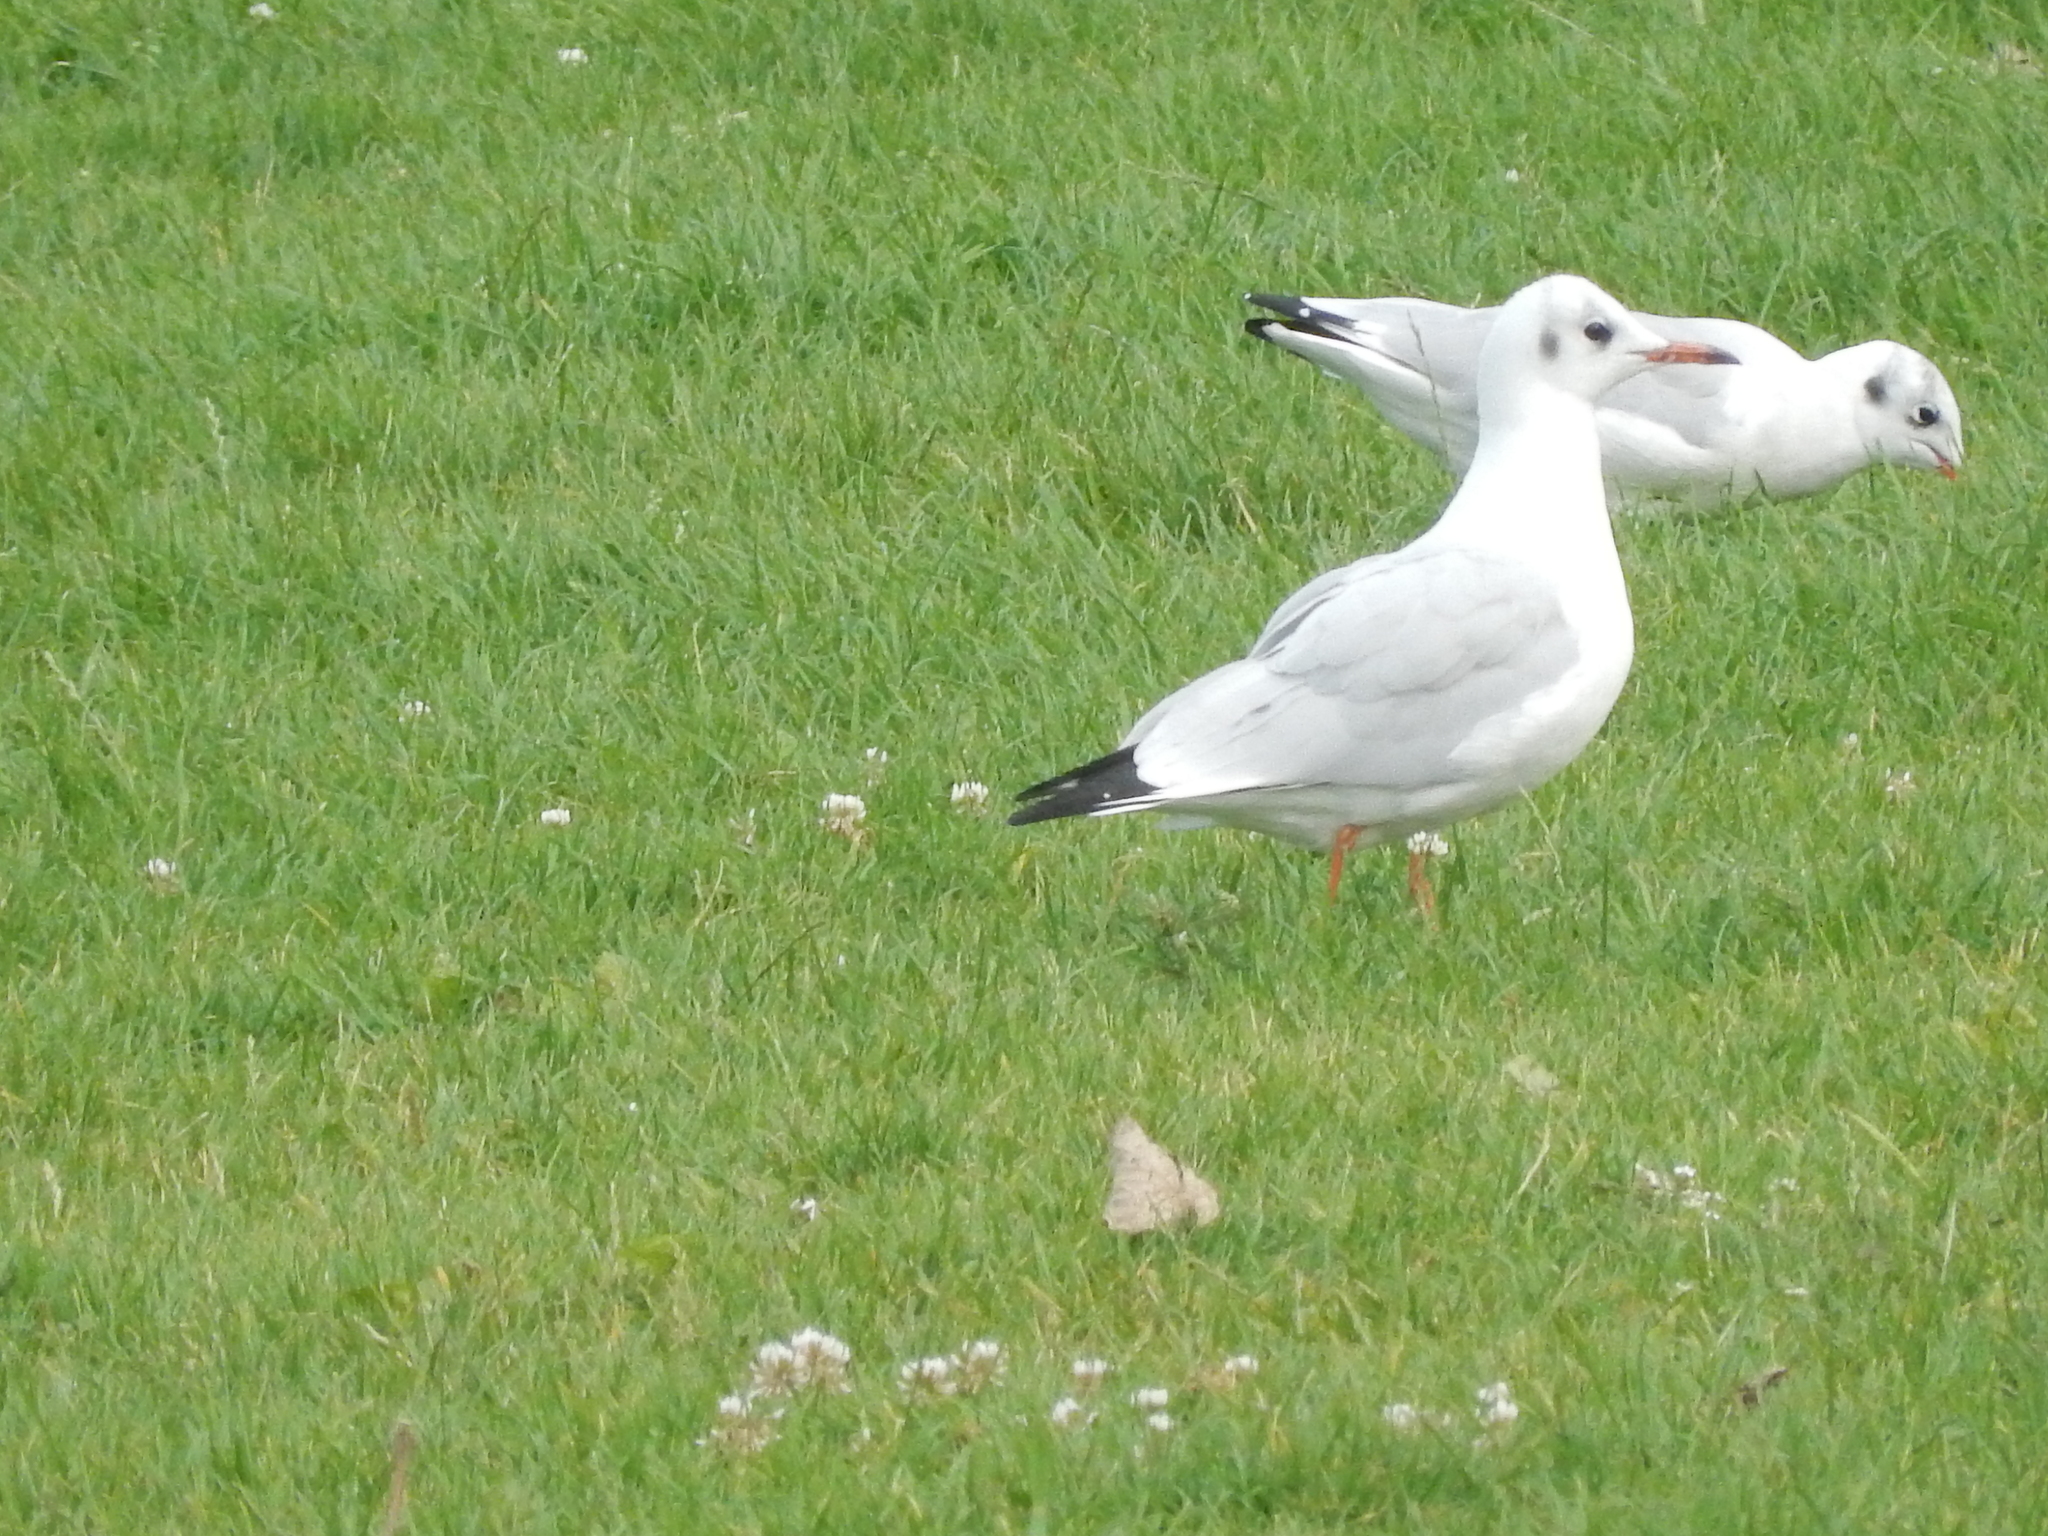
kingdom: Animalia
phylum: Chordata
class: Aves
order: Charadriiformes
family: Laridae
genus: Chroicocephalus
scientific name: Chroicocephalus ridibundus
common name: Black-headed gull
